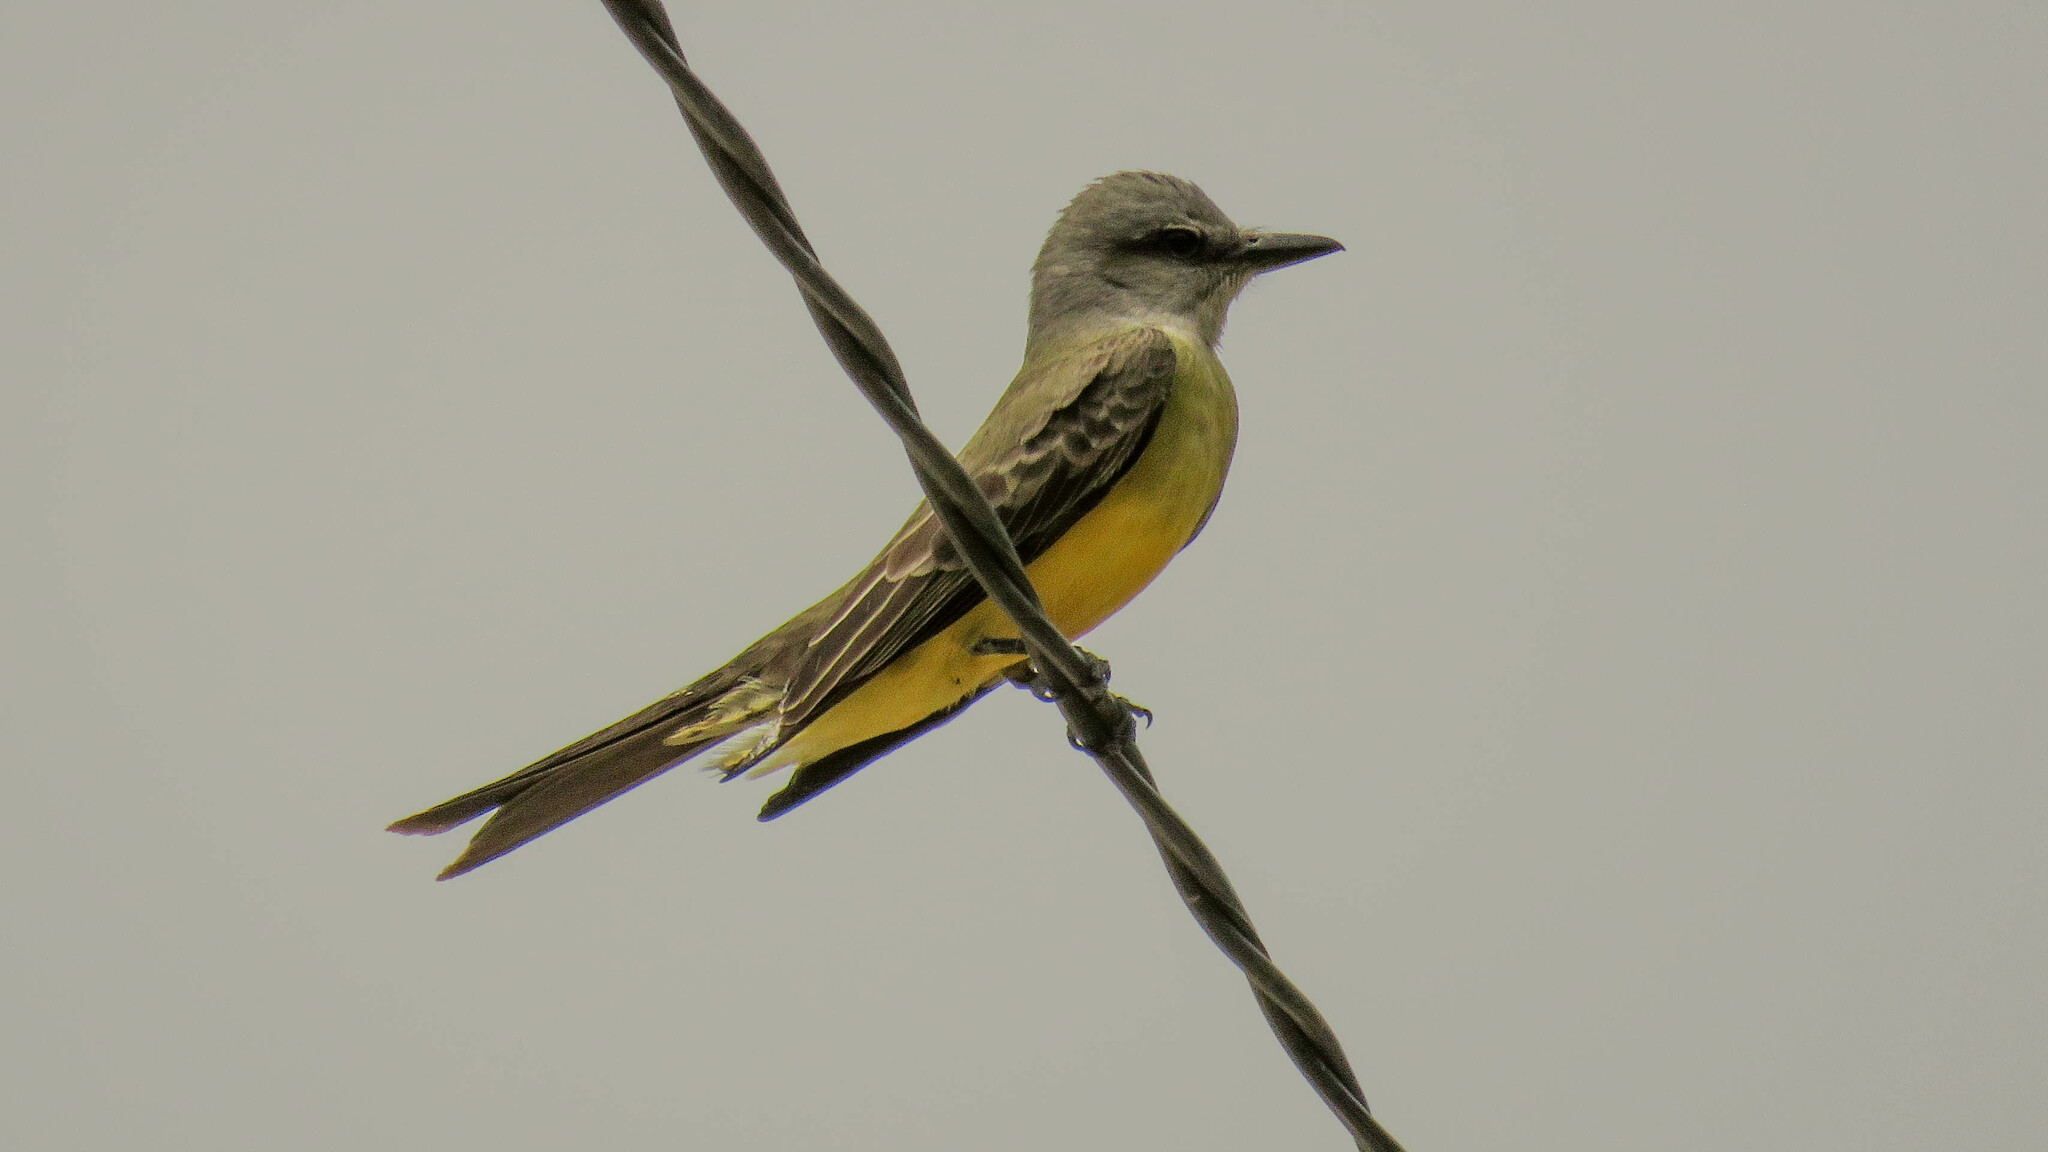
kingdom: Animalia
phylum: Chordata
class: Aves
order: Passeriformes
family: Tyrannidae
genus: Tyrannus
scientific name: Tyrannus melancholicus
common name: Tropical kingbird
